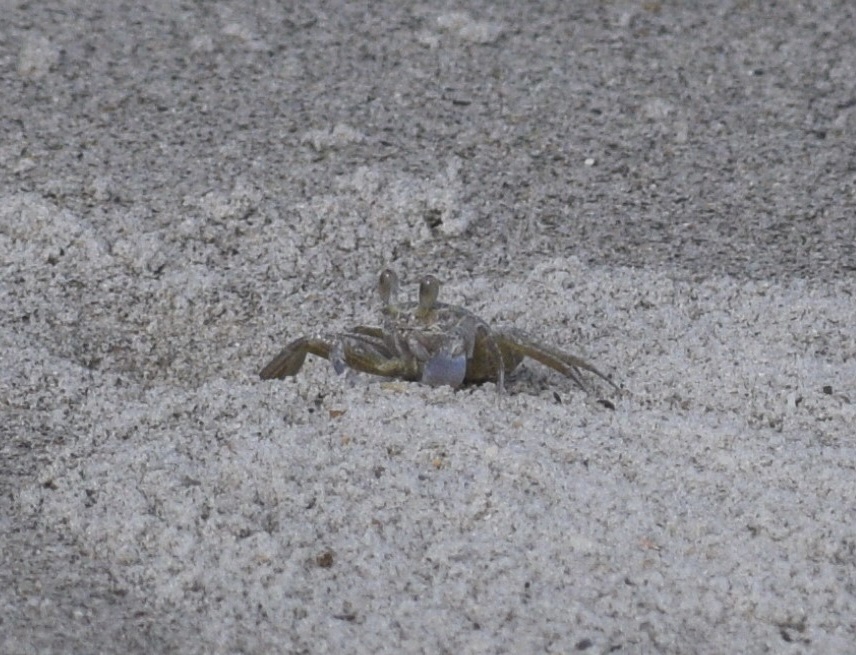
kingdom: Animalia
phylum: Arthropoda
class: Malacostraca
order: Decapoda
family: Ocypodidae
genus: Ocypode
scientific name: Ocypode quadrata
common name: Ghost crab
